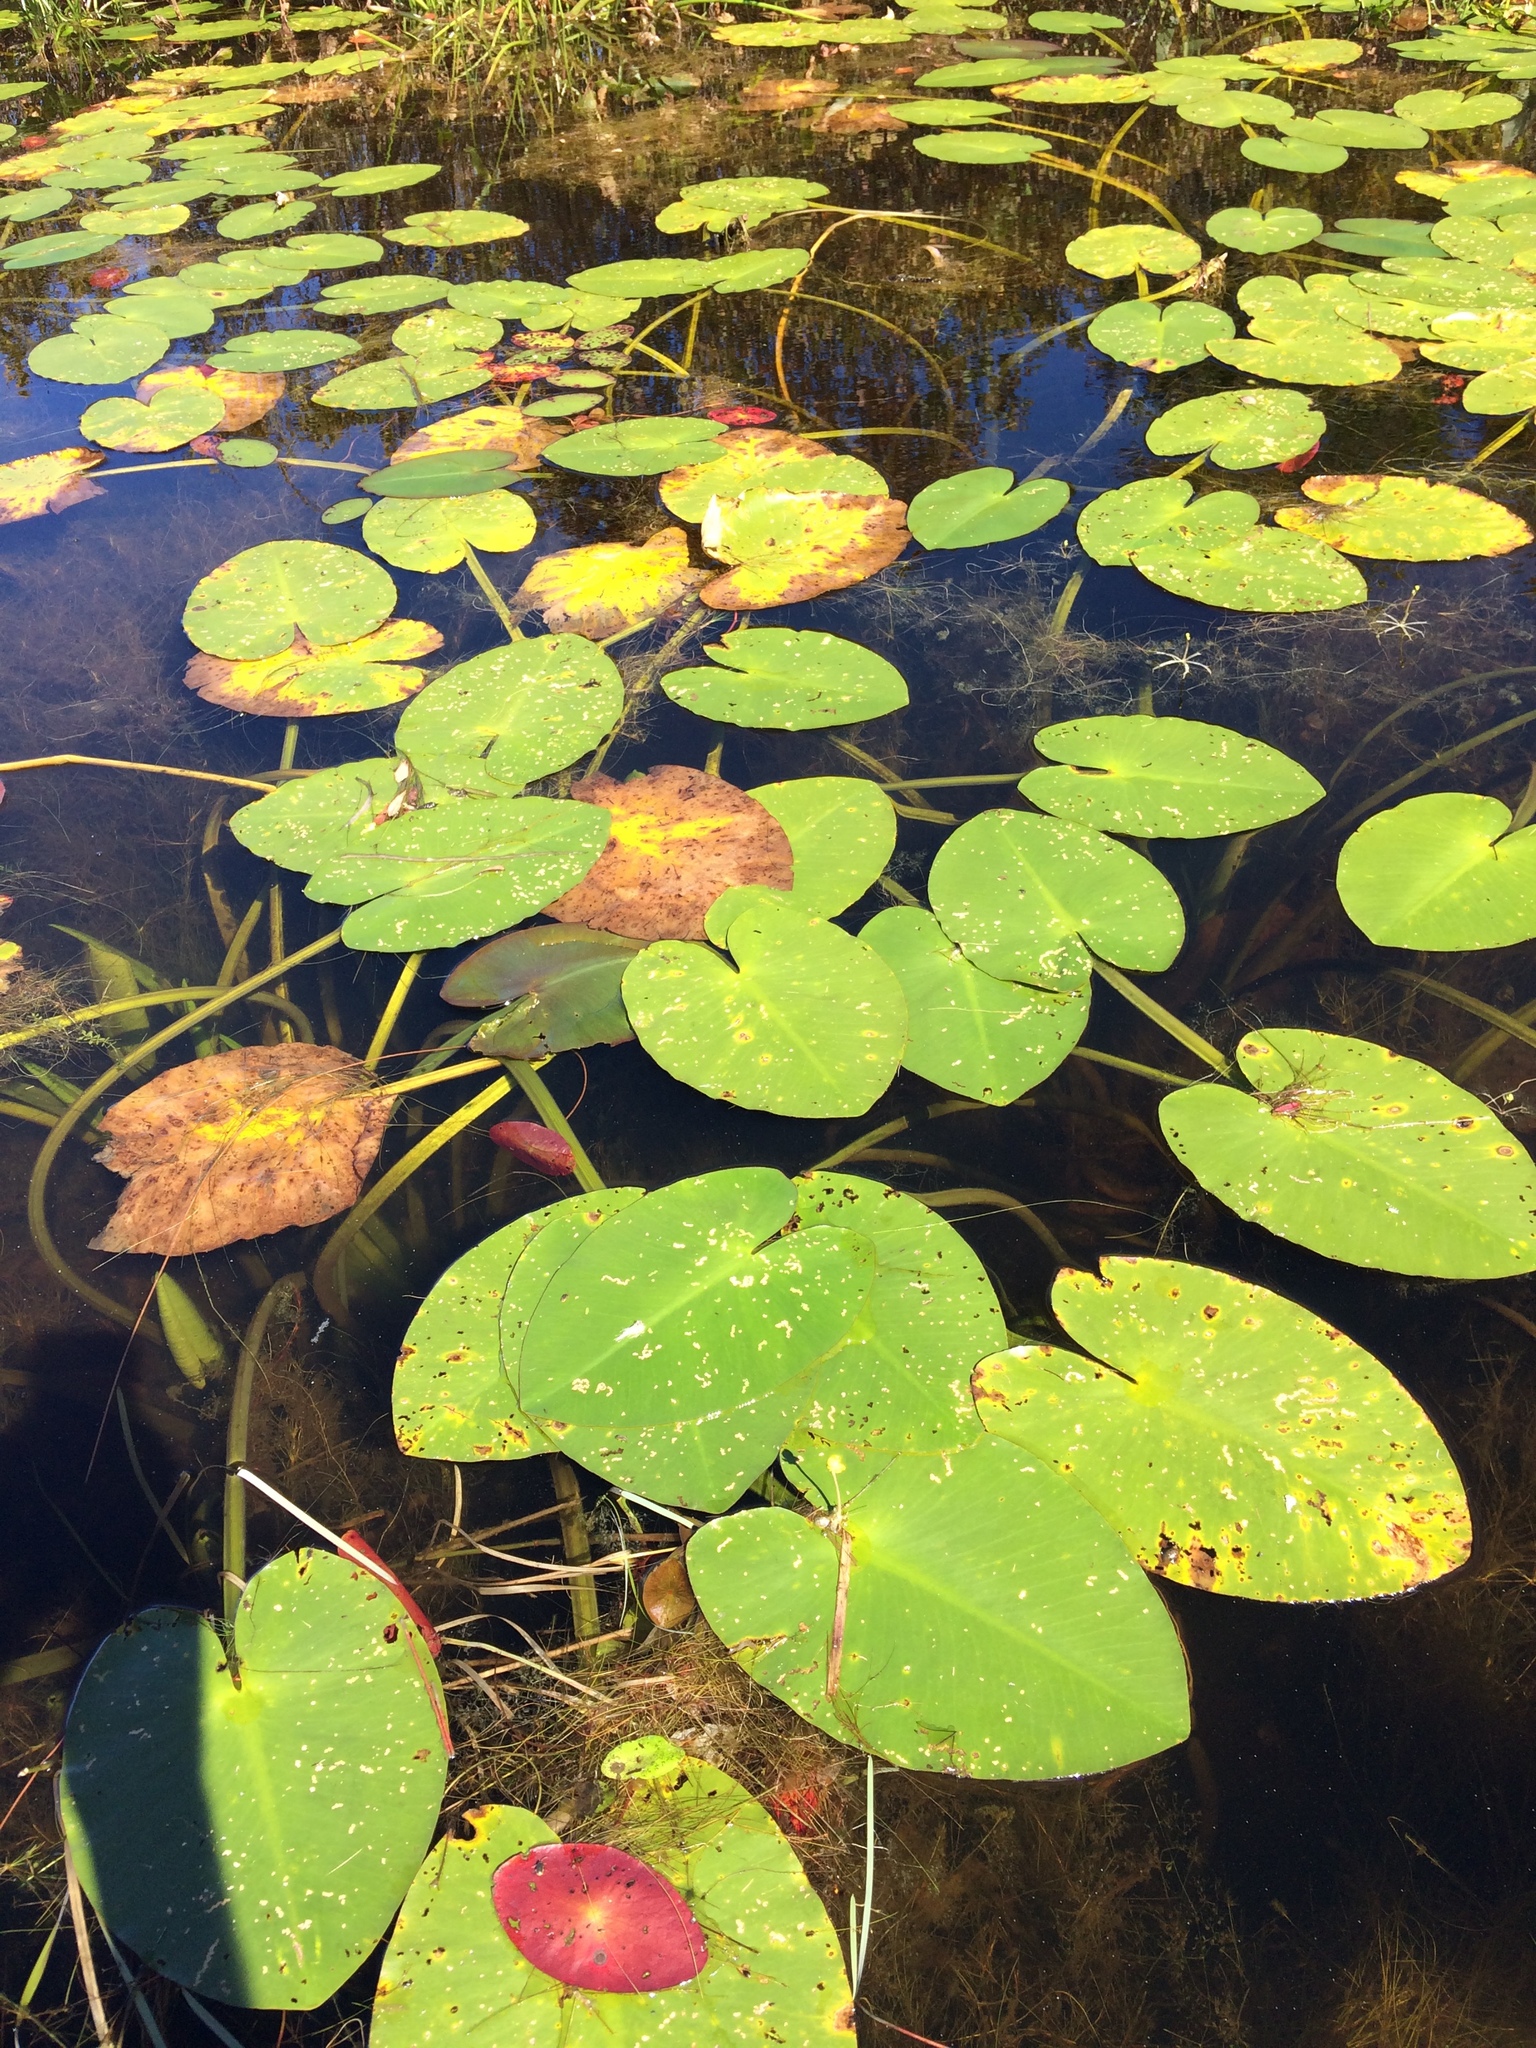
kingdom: Plantae
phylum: Tracheophyta
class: Magnoliopsida
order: Nymphaeales
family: Nymphaeaceae
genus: Nuphar
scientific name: Nuphar variegata
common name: Beaver-root
